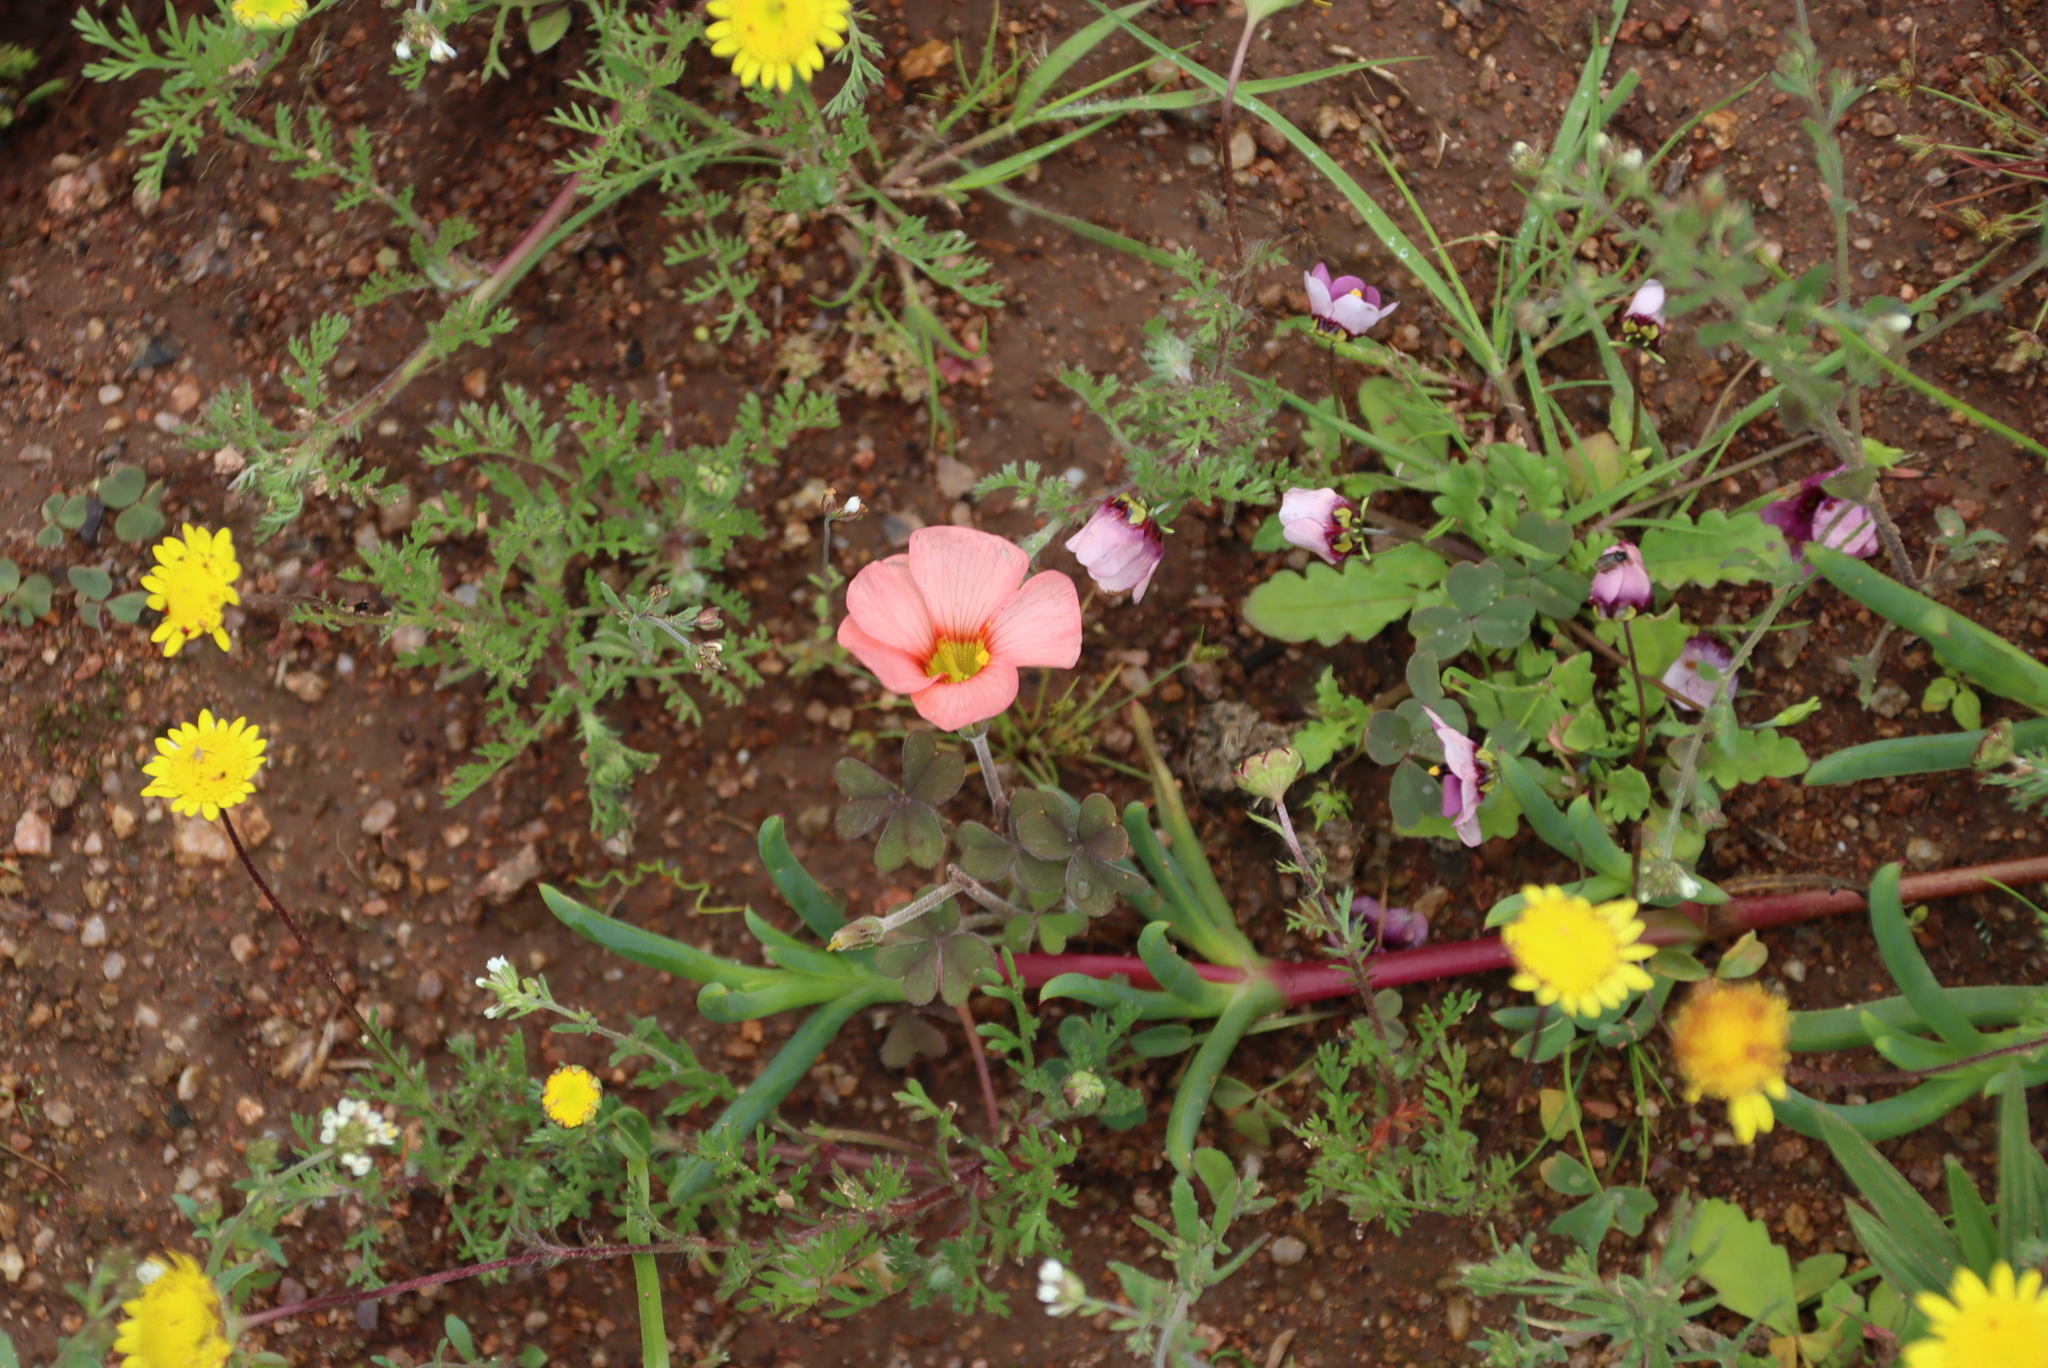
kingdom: Plantae
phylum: Tracheophyta
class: Magnoliopsida
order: Oxalidales
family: Oxalidaceae
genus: Oxalis
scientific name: Oxalis obtusa
